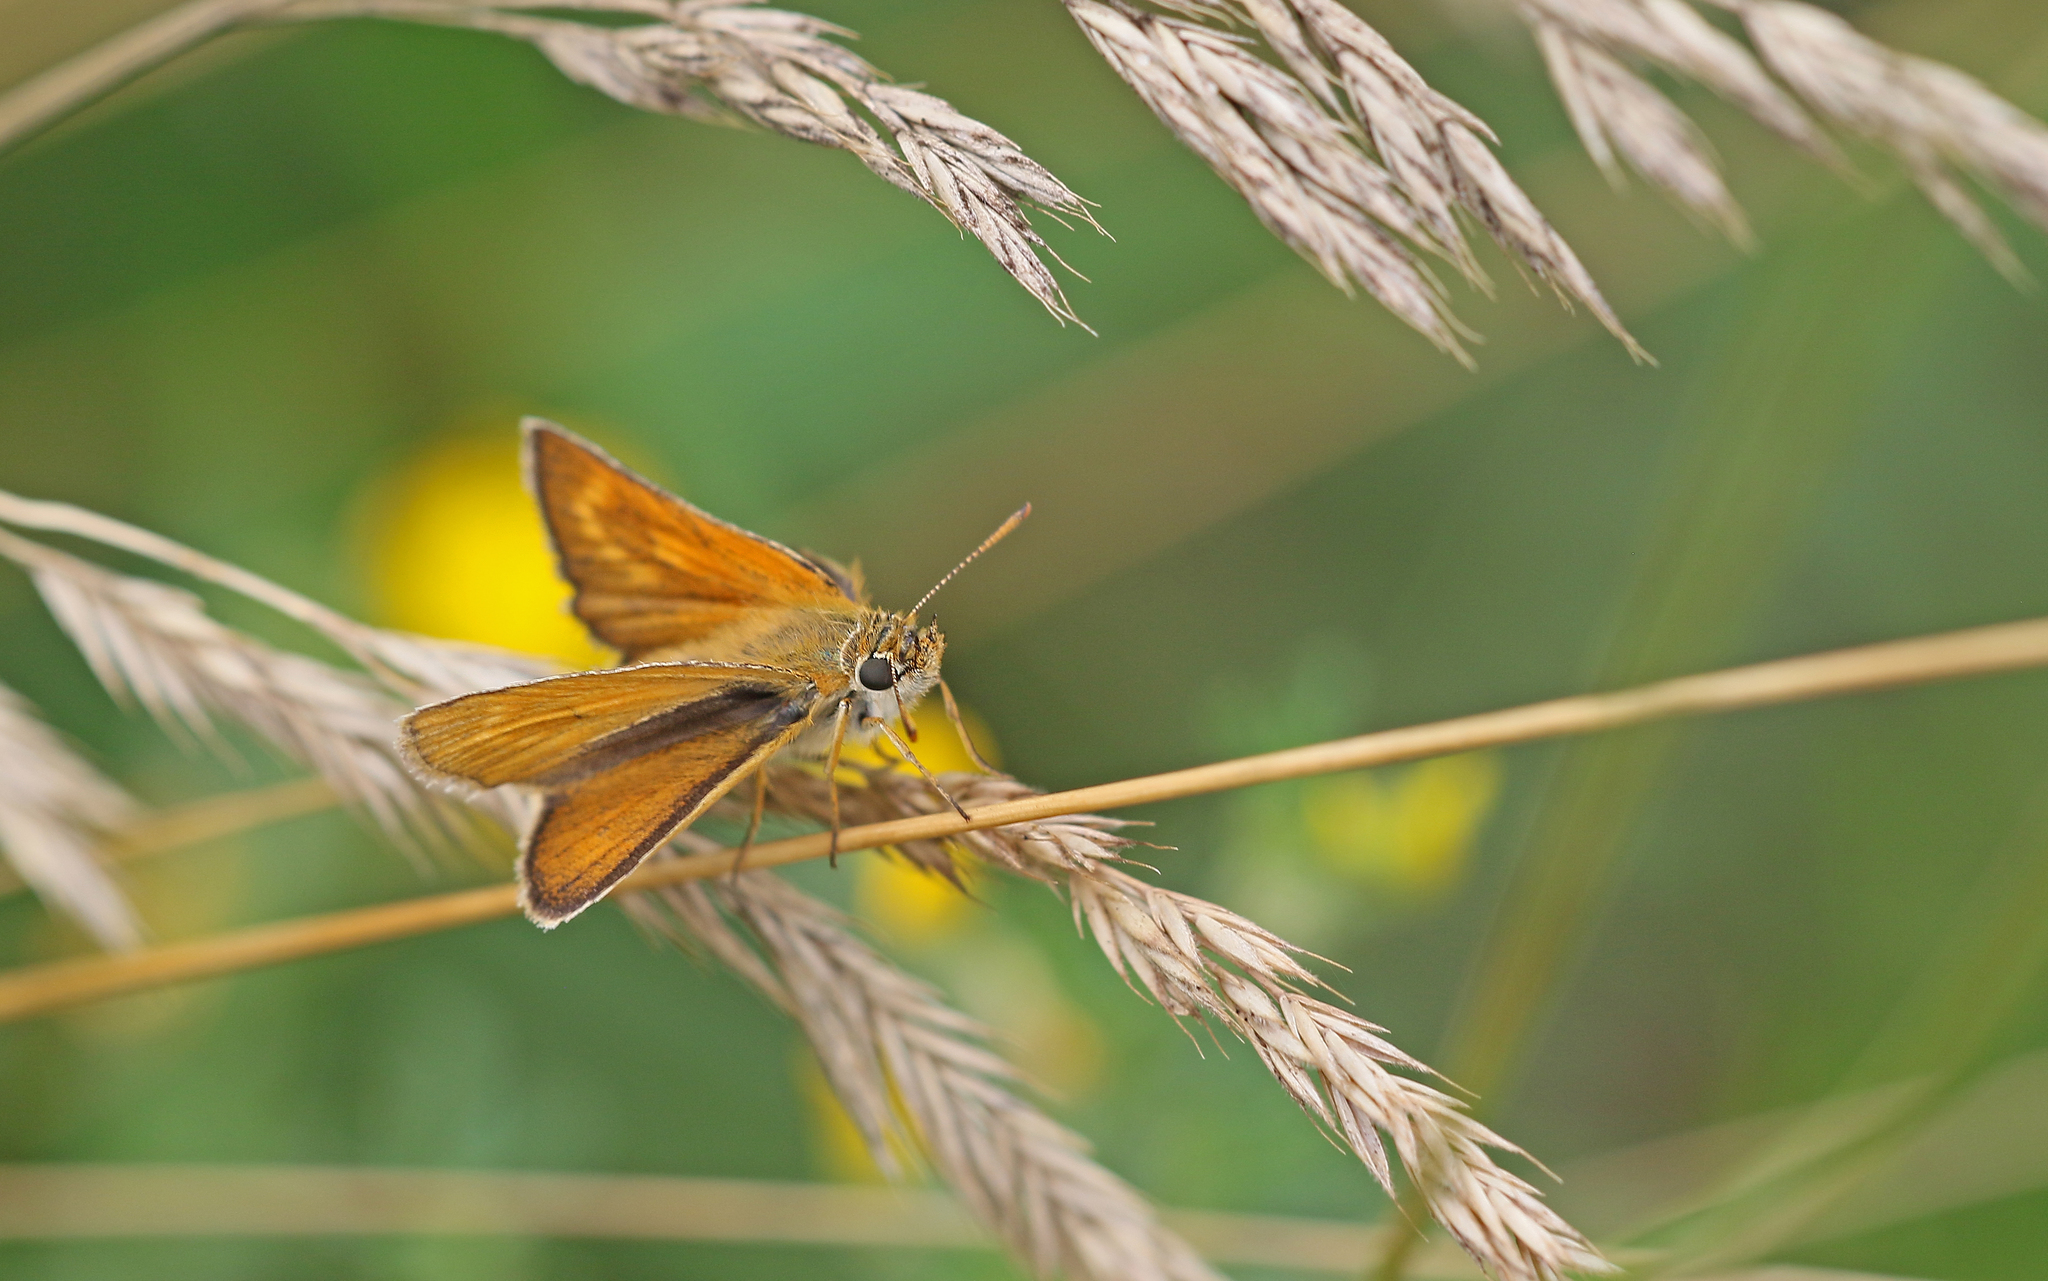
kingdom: Animalia
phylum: Arthropoda
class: Insecta
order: Lepidoptera
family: Hesperiidae
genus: Thymelicus
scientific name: Thymelicus acteon
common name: Lulworth skipper
